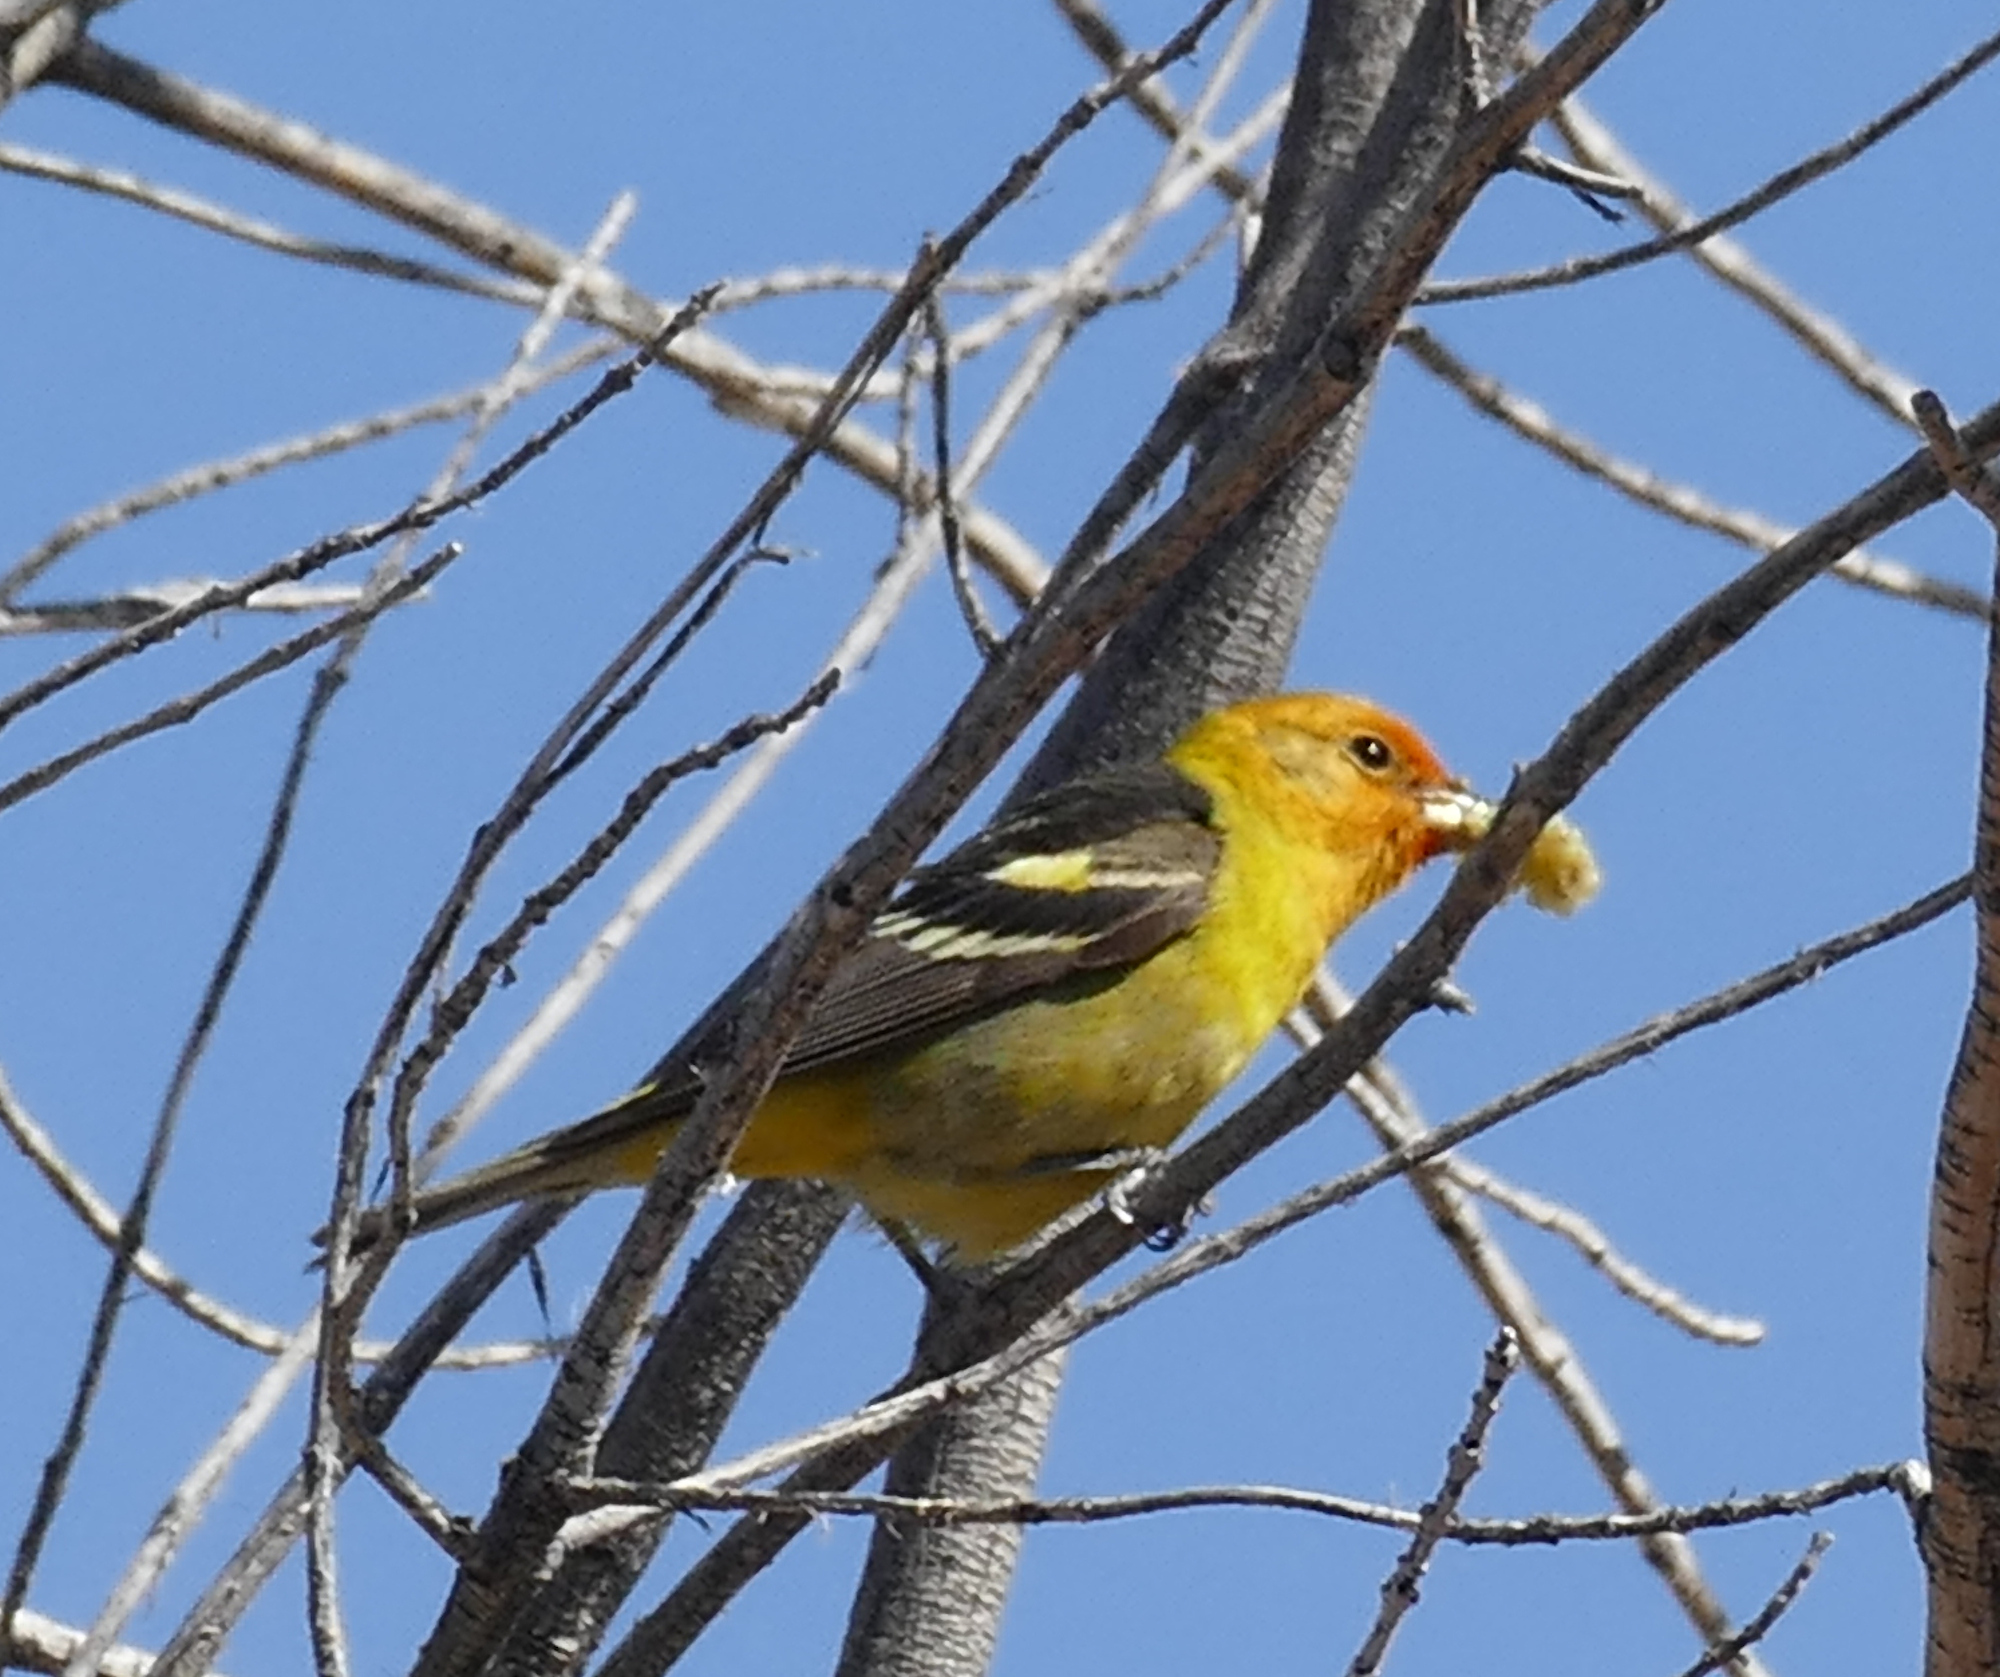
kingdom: Animalia
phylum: Chordata
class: Aves
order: Passeriformes
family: Cardinalidae
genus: Piranga
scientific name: Piranga ludoviciana
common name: Western tanager
